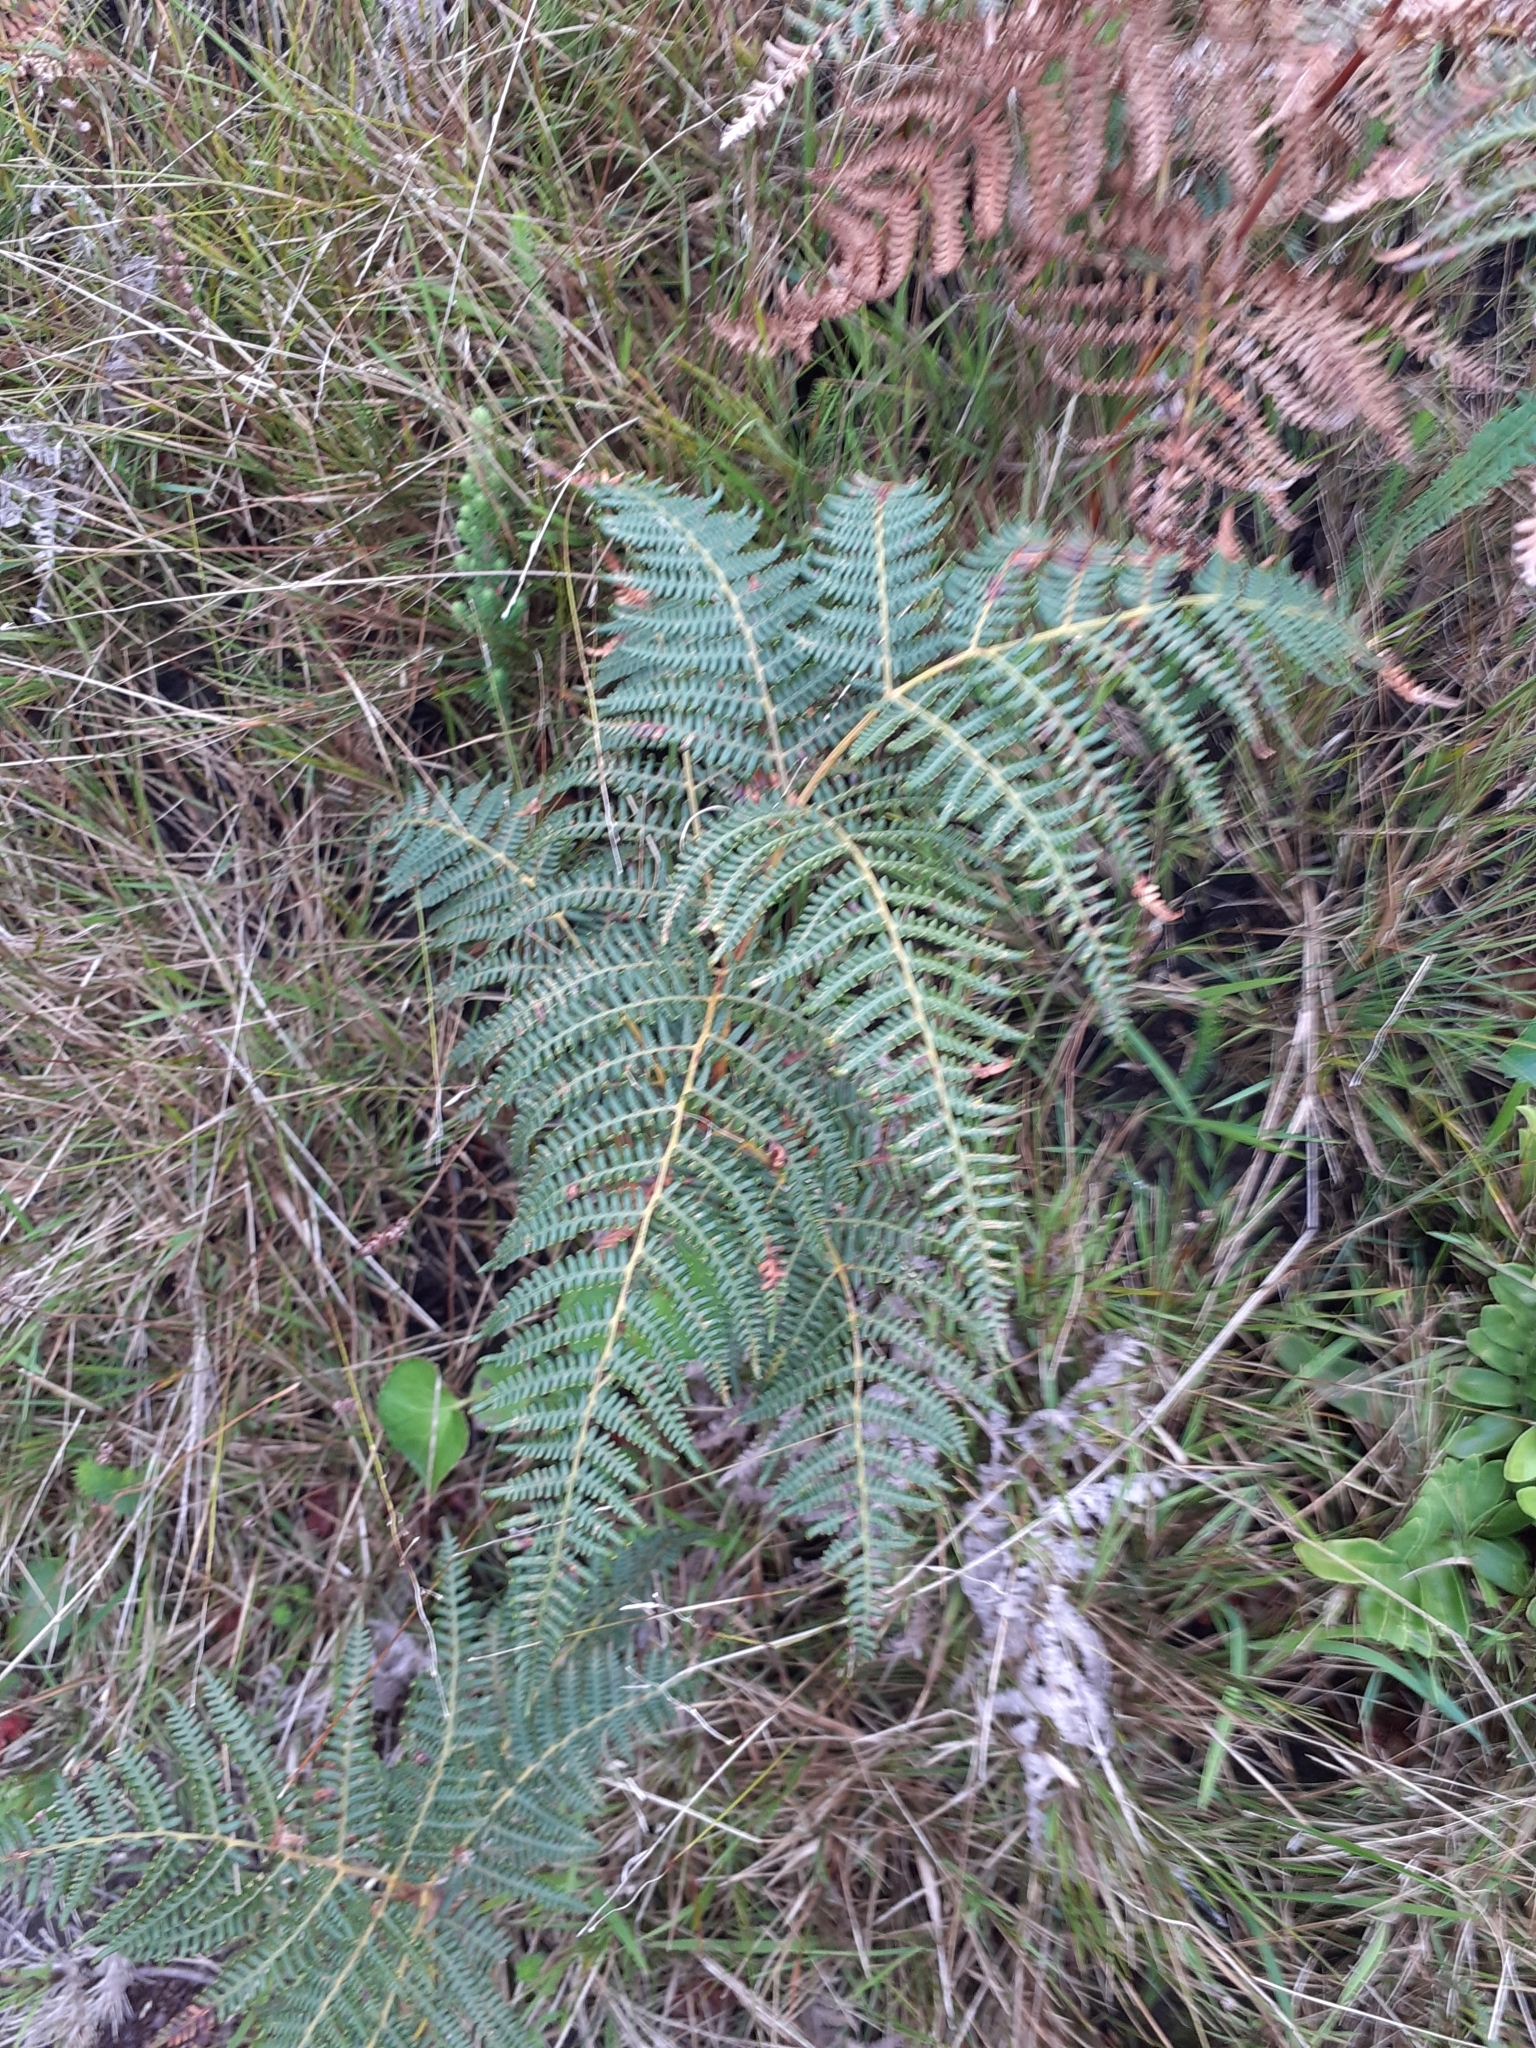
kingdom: Plantae
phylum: Tracheophyta
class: Polypodiopsida
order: Polypodiales
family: Dennstaedtiaceae
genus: Pteridium
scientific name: Pteridium aquilinum
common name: Bracken
